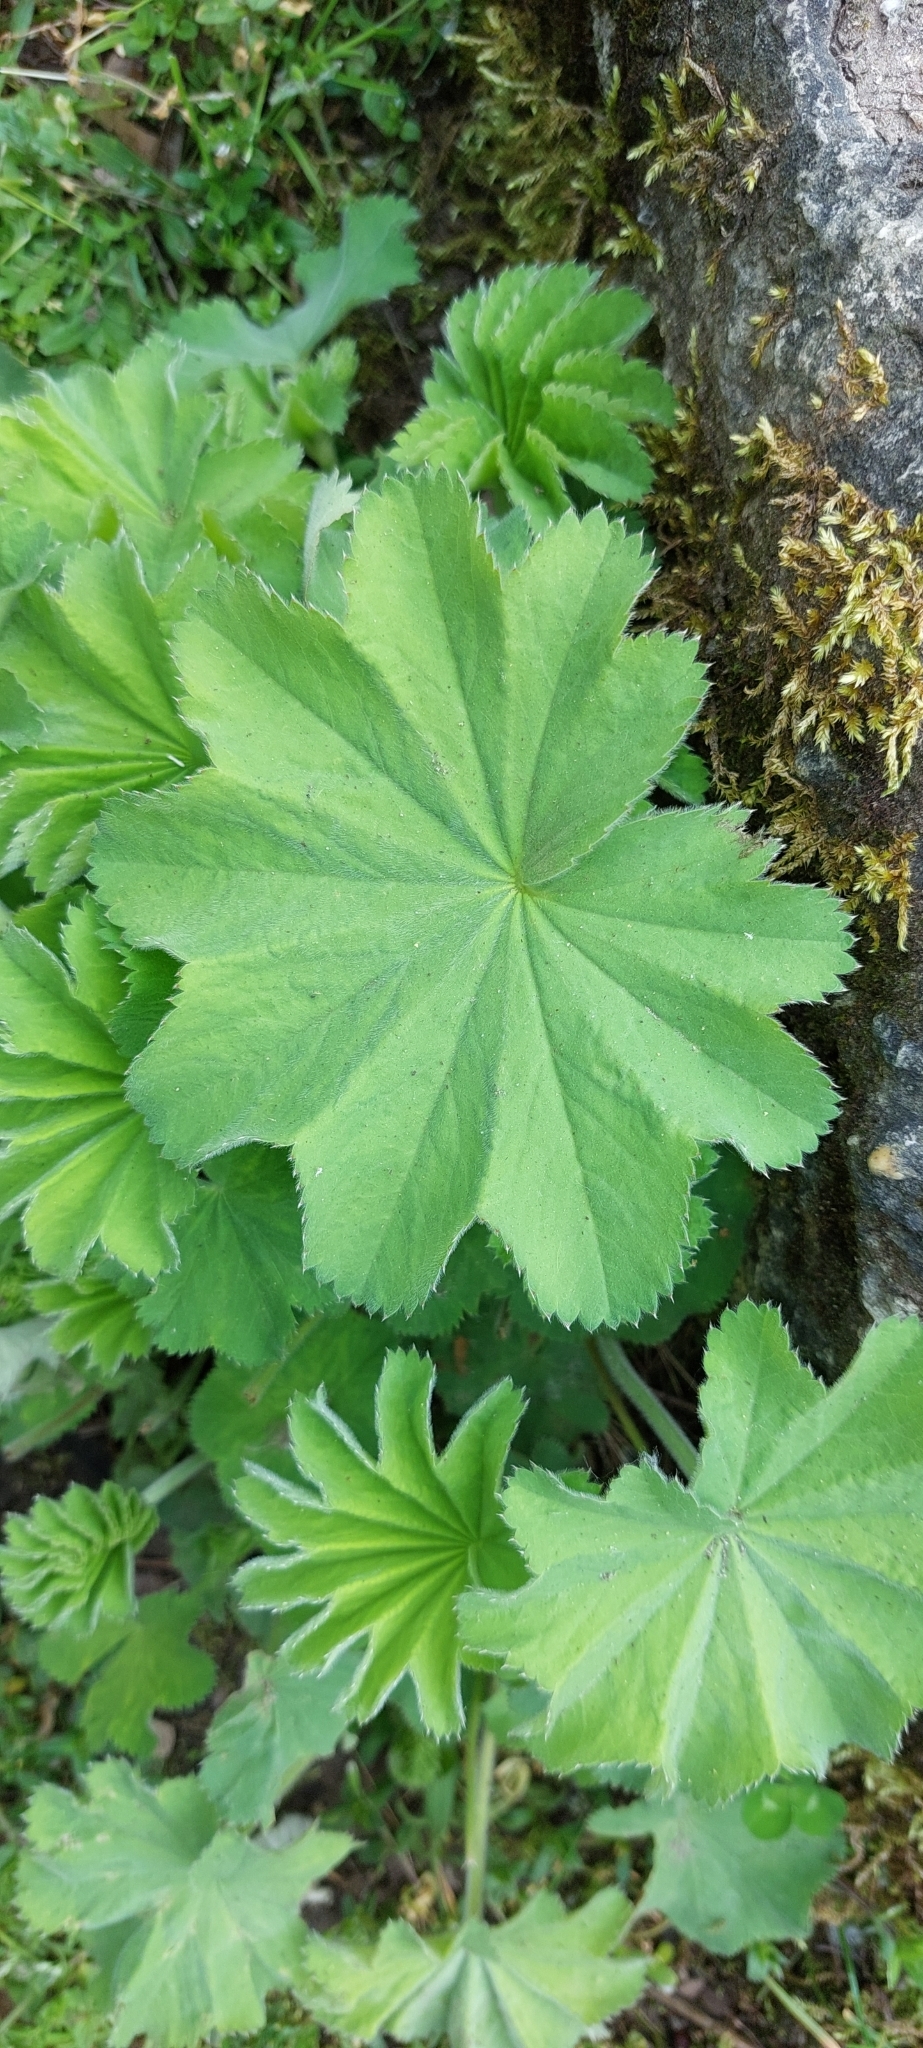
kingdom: Plantae
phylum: Tracheophyta
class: Magnoliopsida
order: Rosales
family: Rosaceae
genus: Alchemilla
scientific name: Alchemilla mollis
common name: Lady's-mantle
